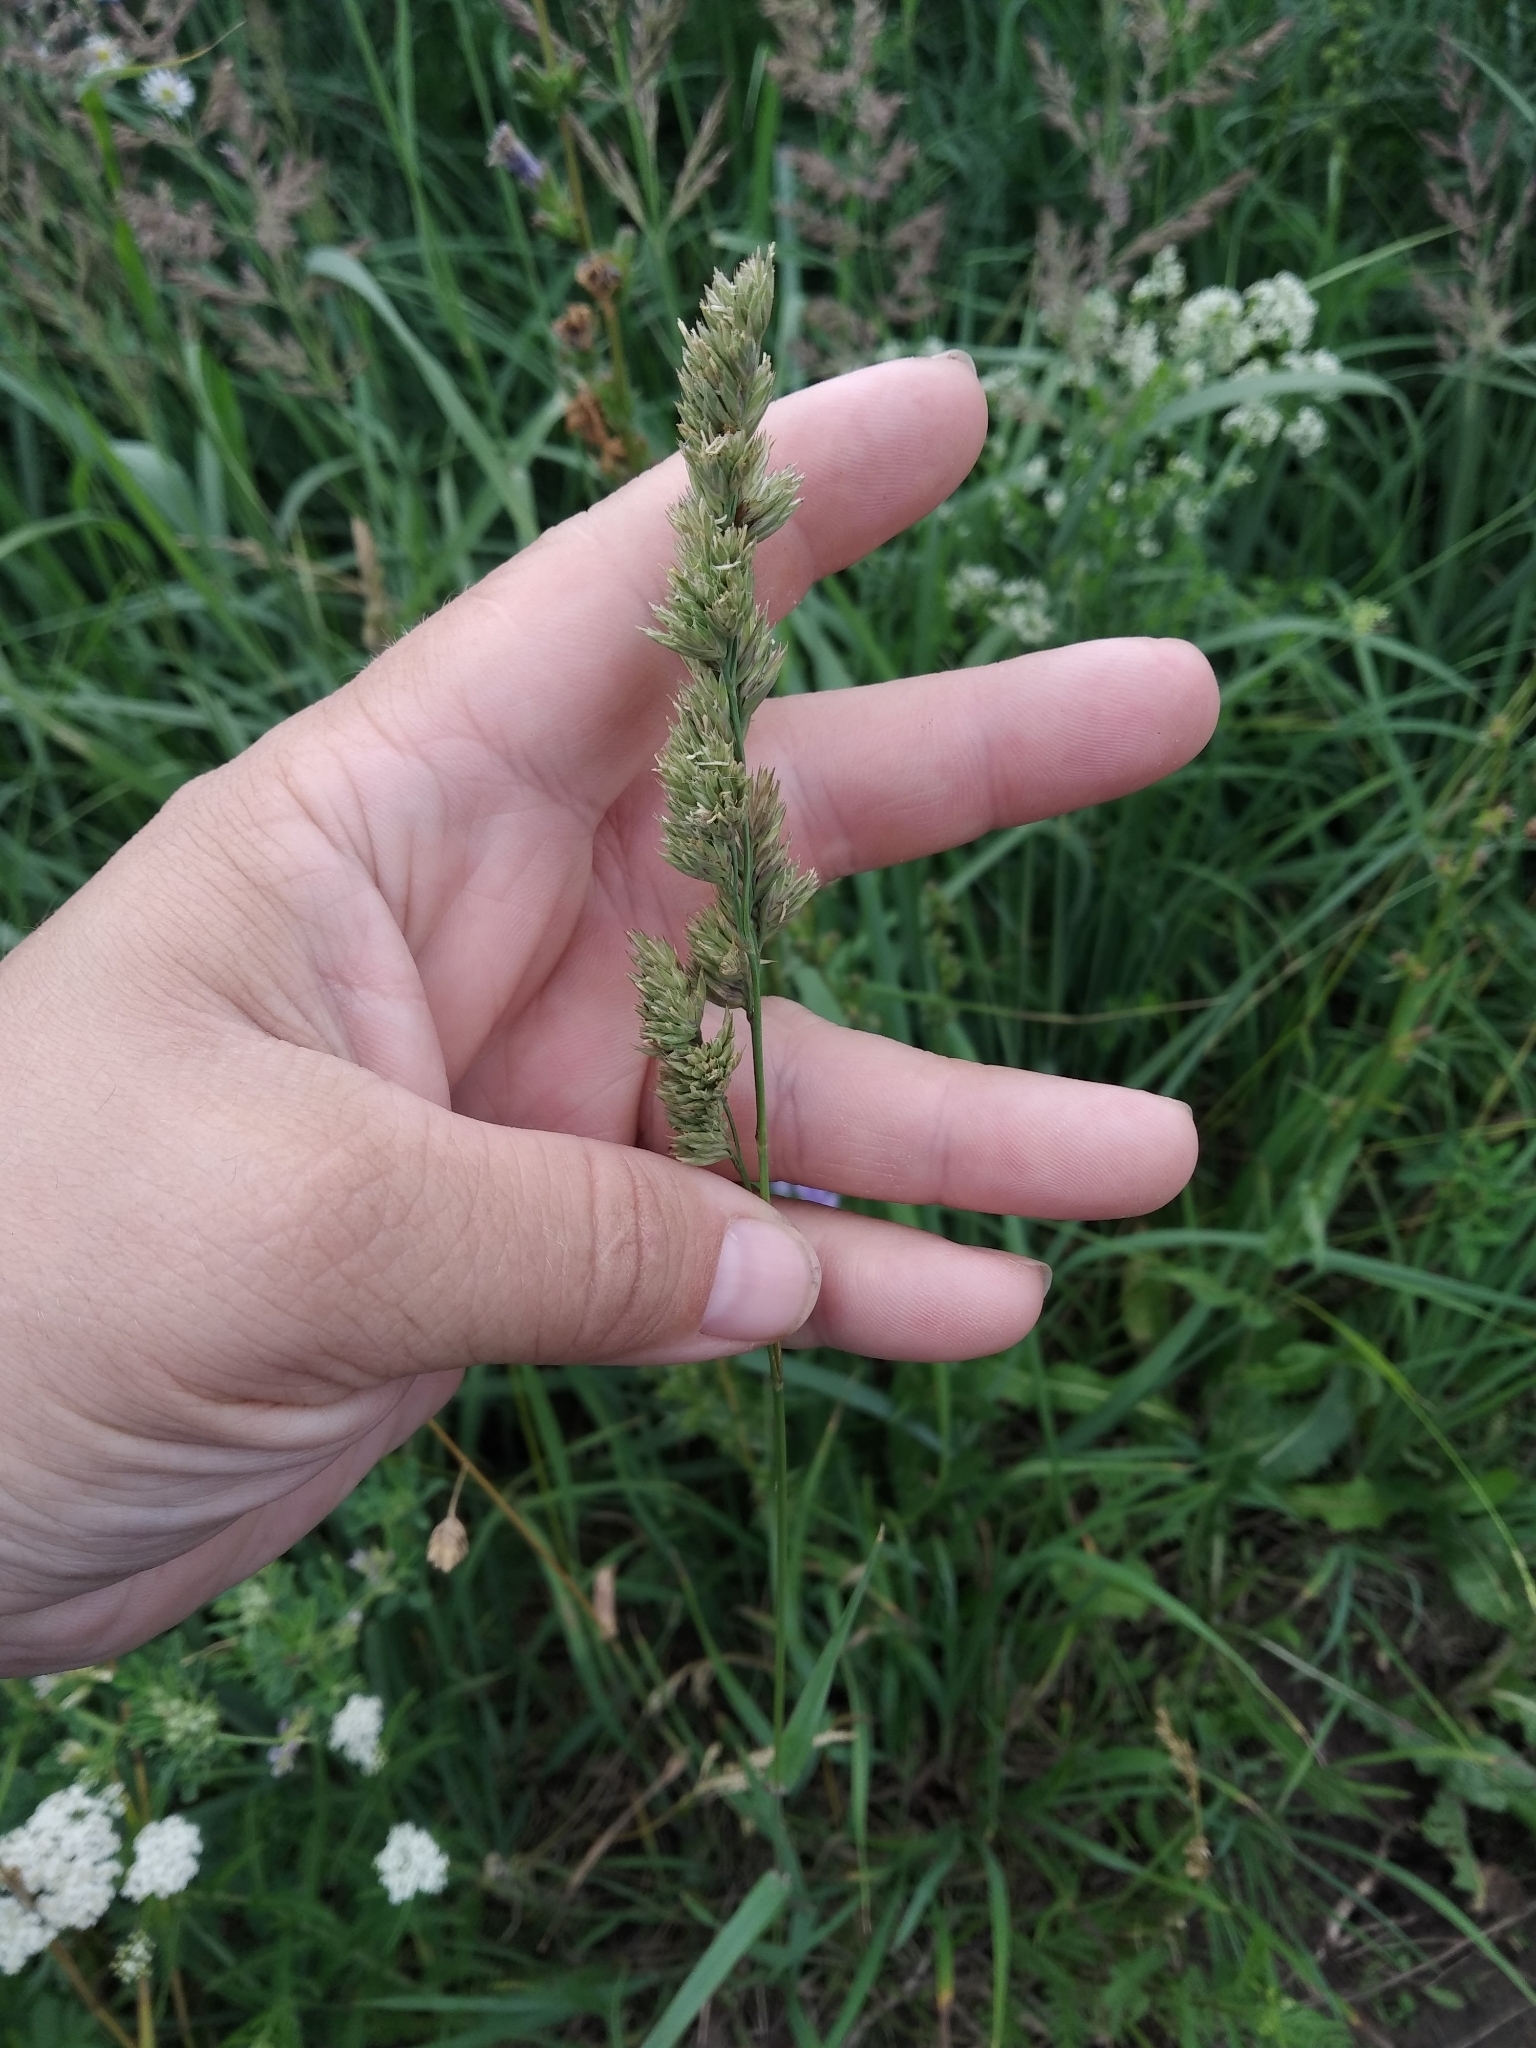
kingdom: Plantae
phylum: Tracheophyta
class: Liliopsida
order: Poales
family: Poaceae
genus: Dactylis
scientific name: Dactylis glomerata
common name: Orchardgrass
